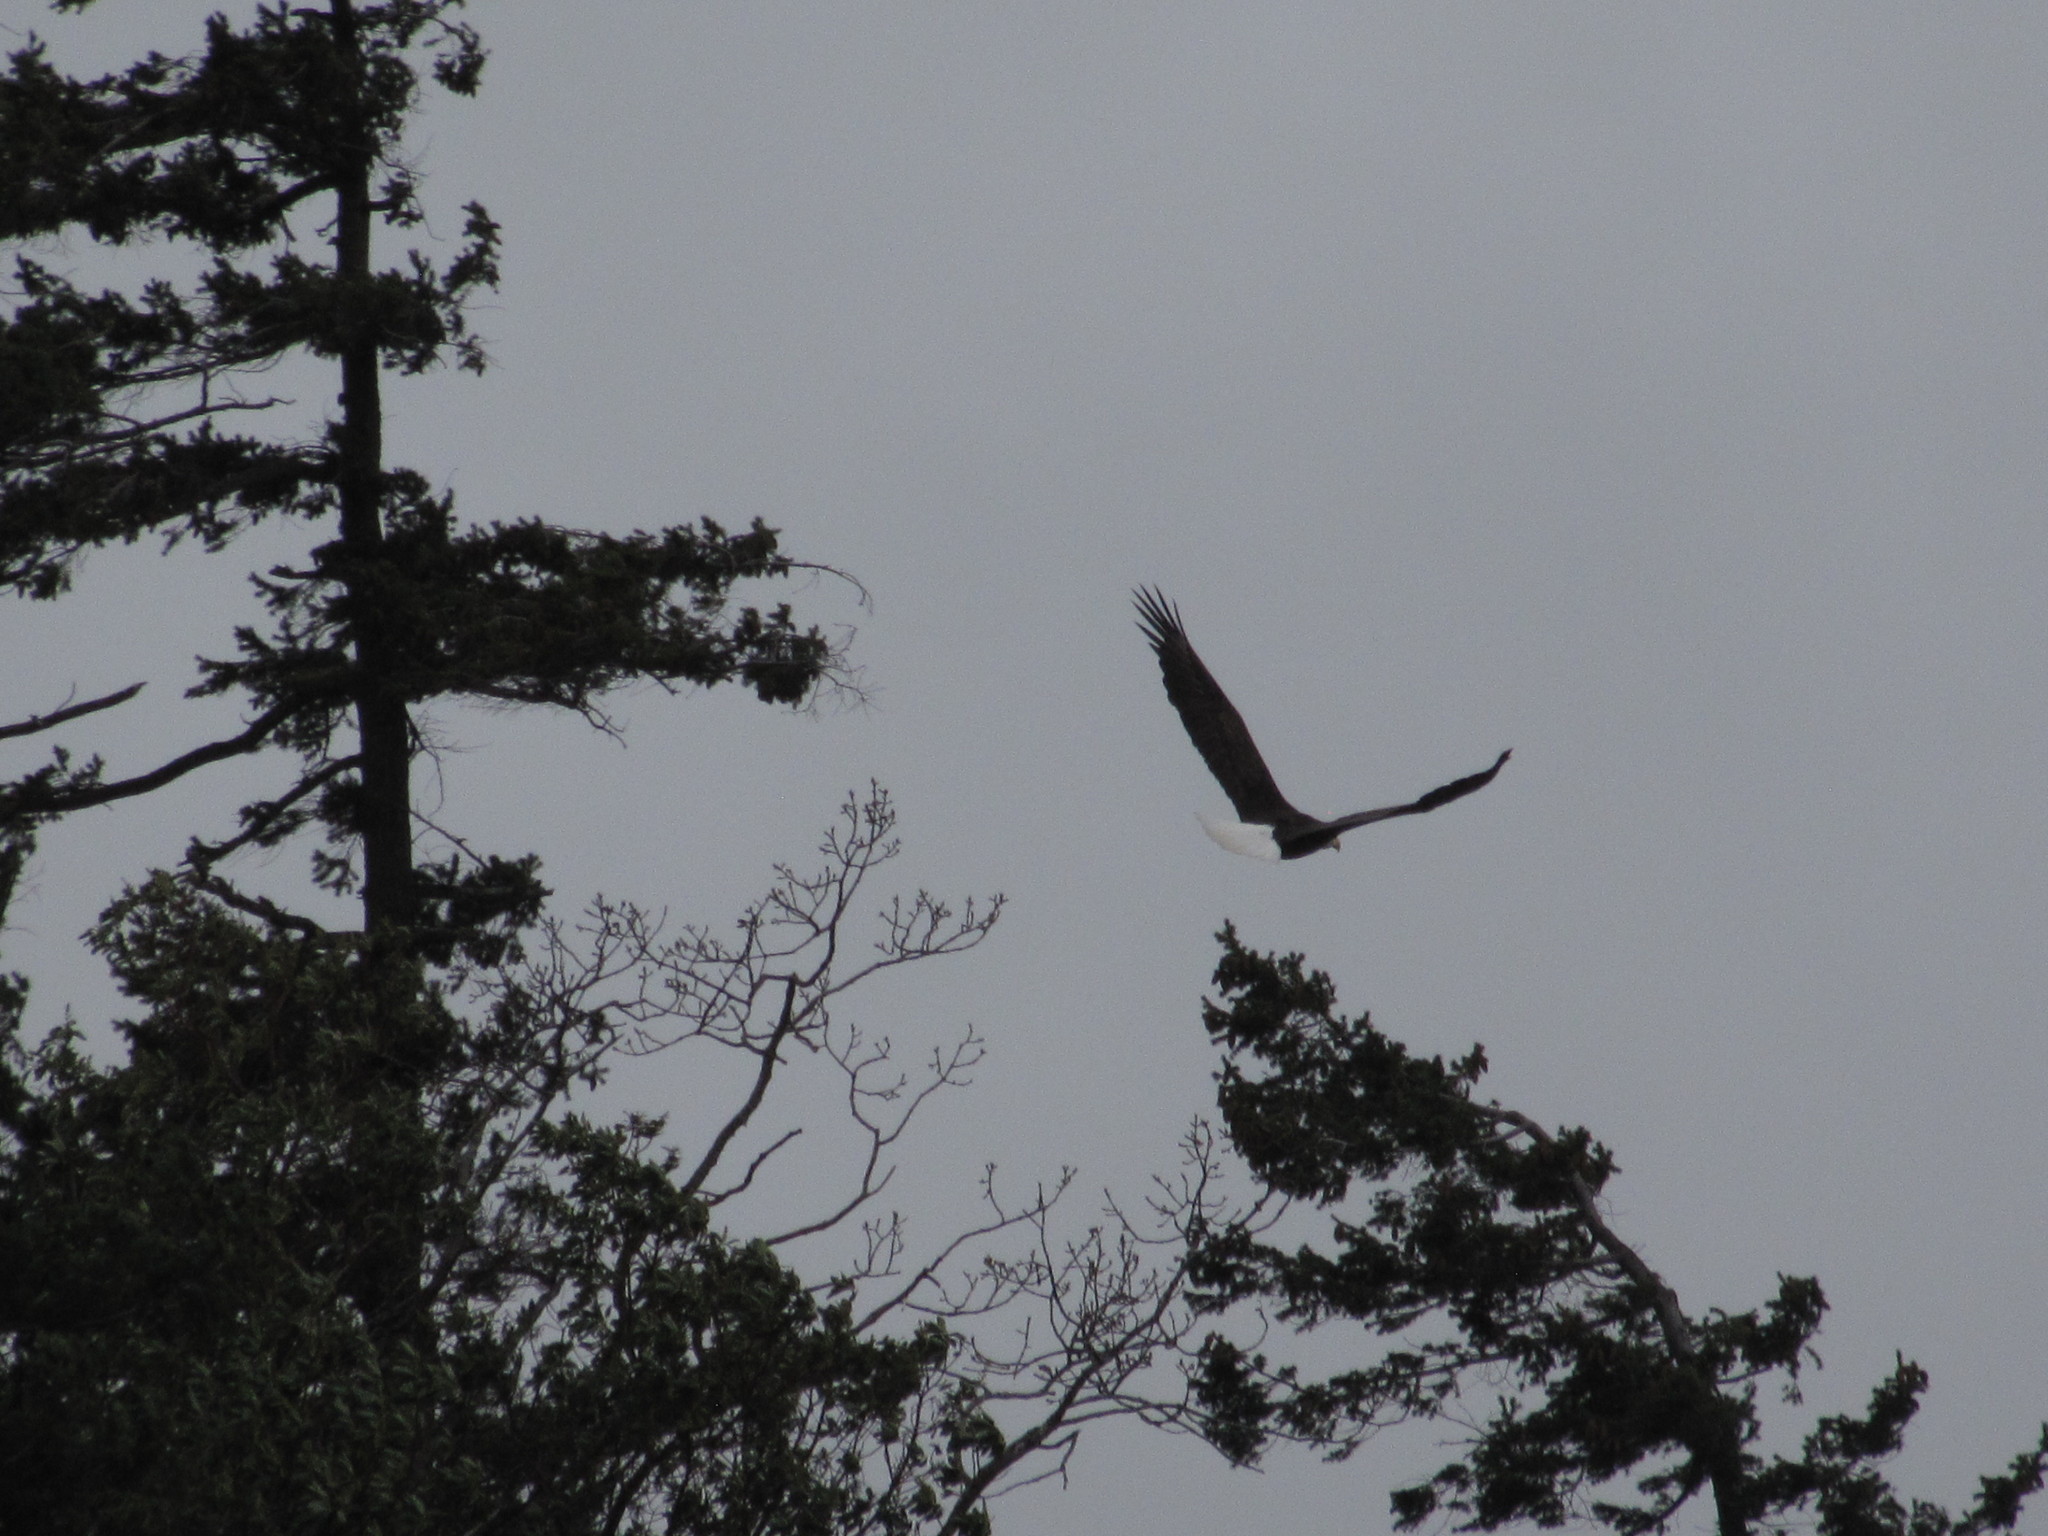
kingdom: Animalia
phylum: Chordata
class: Aves
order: Accipitriformes
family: Accipitridae
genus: Haliaeetus
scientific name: Haliaeetus leucocephalus
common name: Bald eagle
